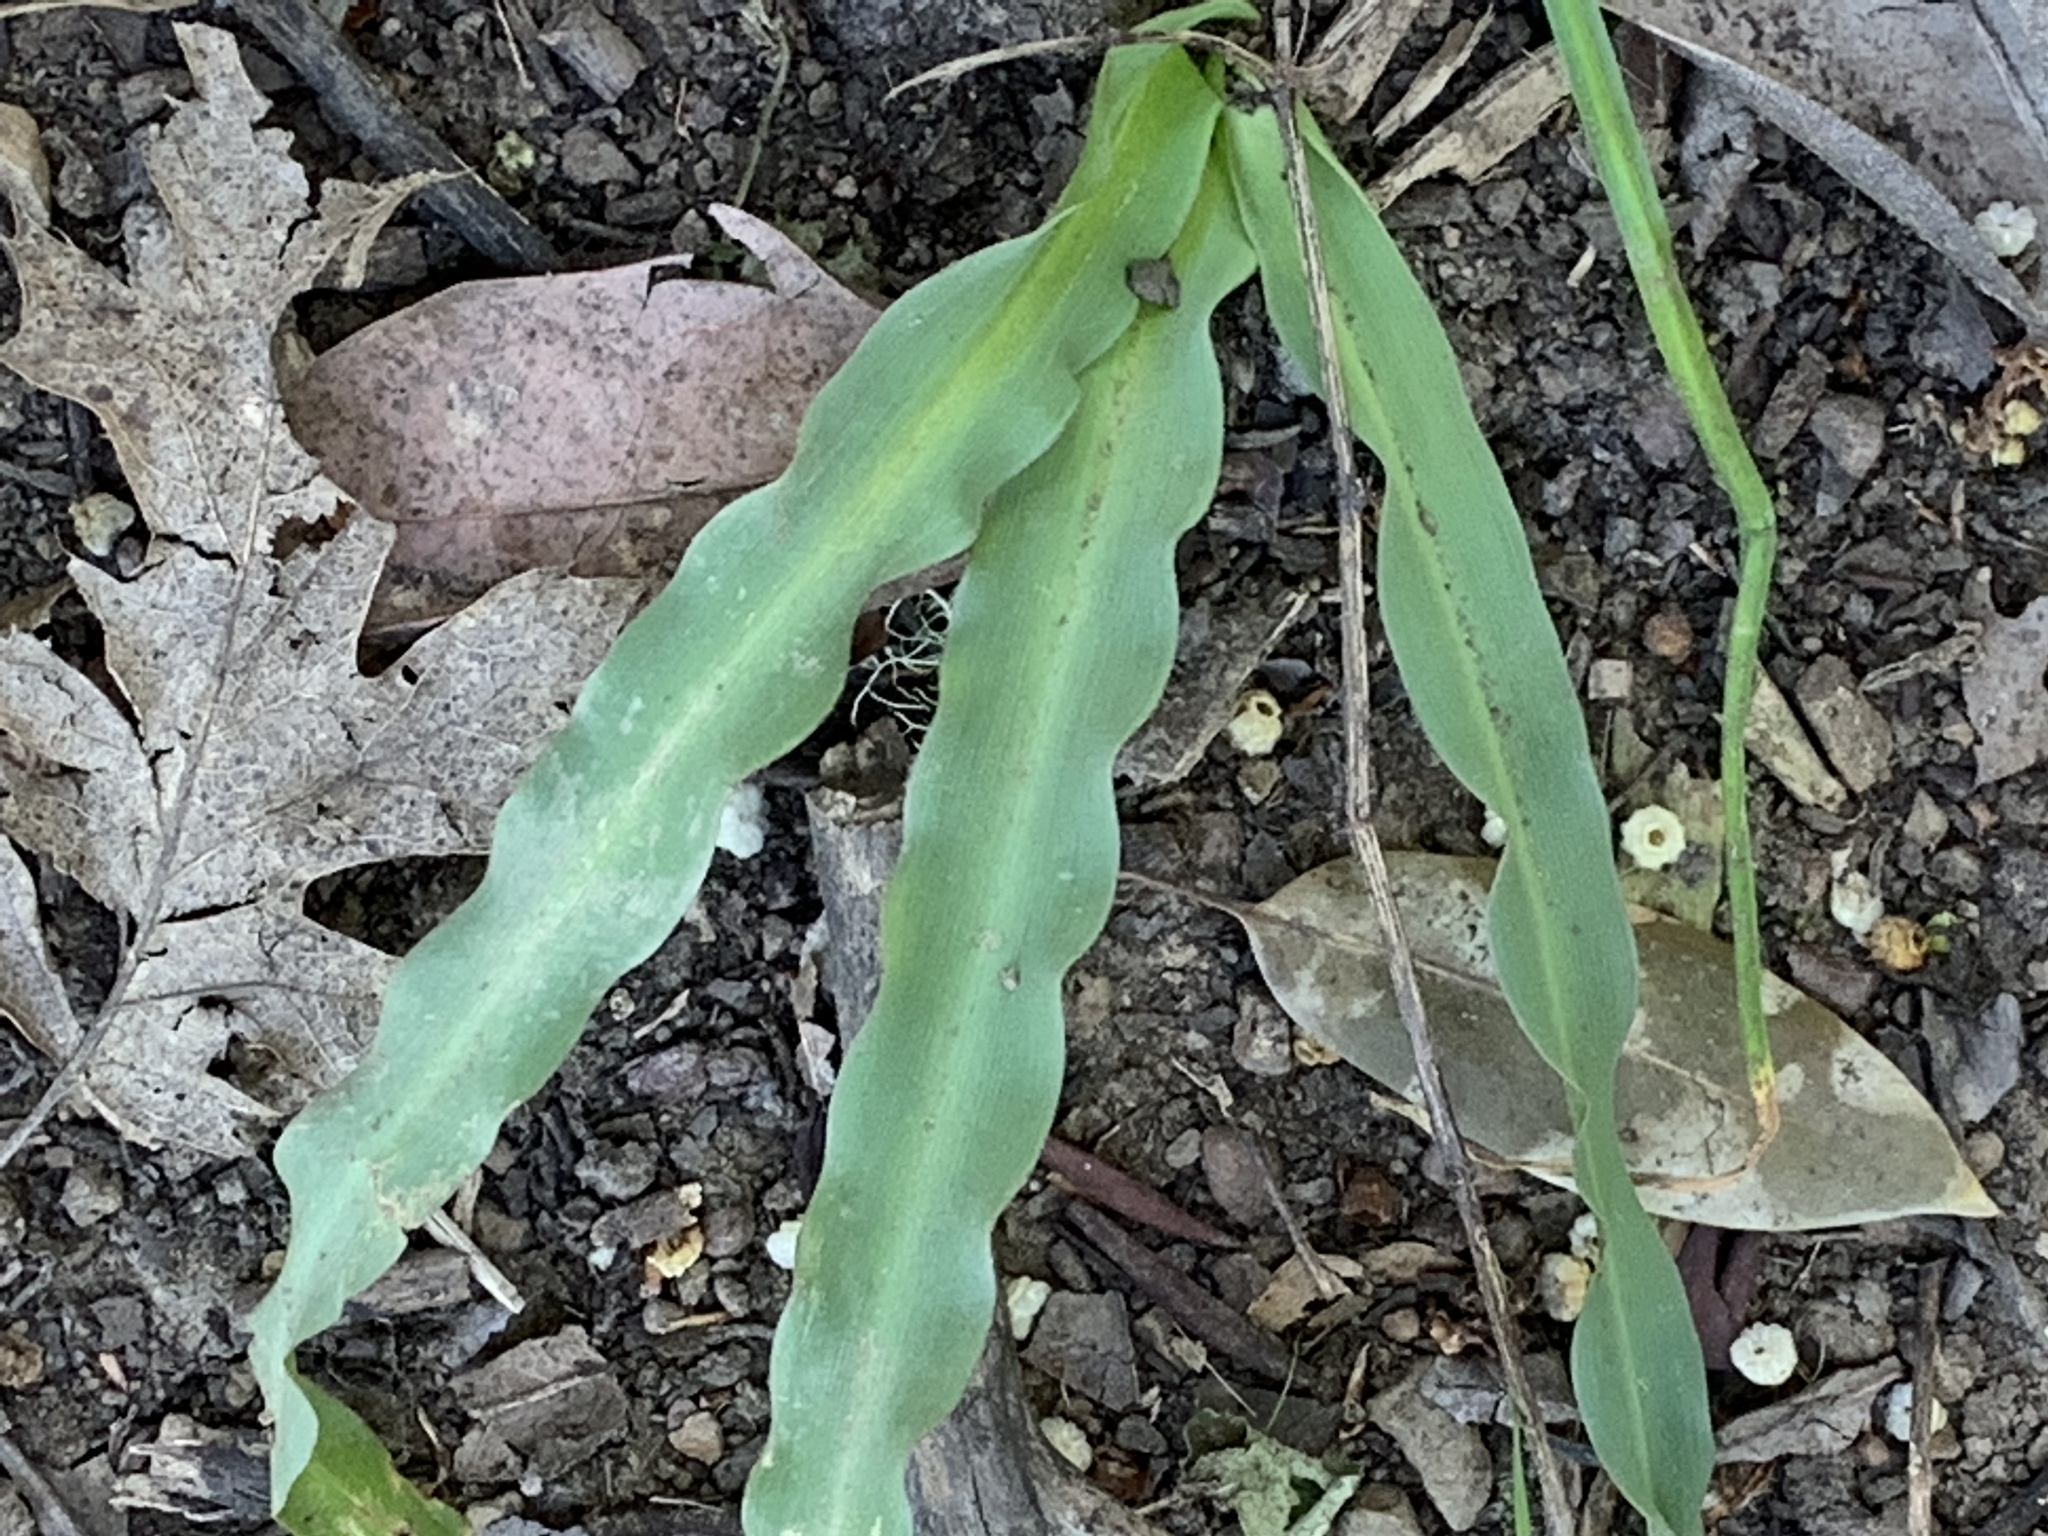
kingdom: Plantae
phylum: Tracheophyta
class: Liliopsida
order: Asparagales
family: Asparagaceae
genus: Chlorogalum
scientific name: Chlorogalum pomeridianum
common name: Amole
